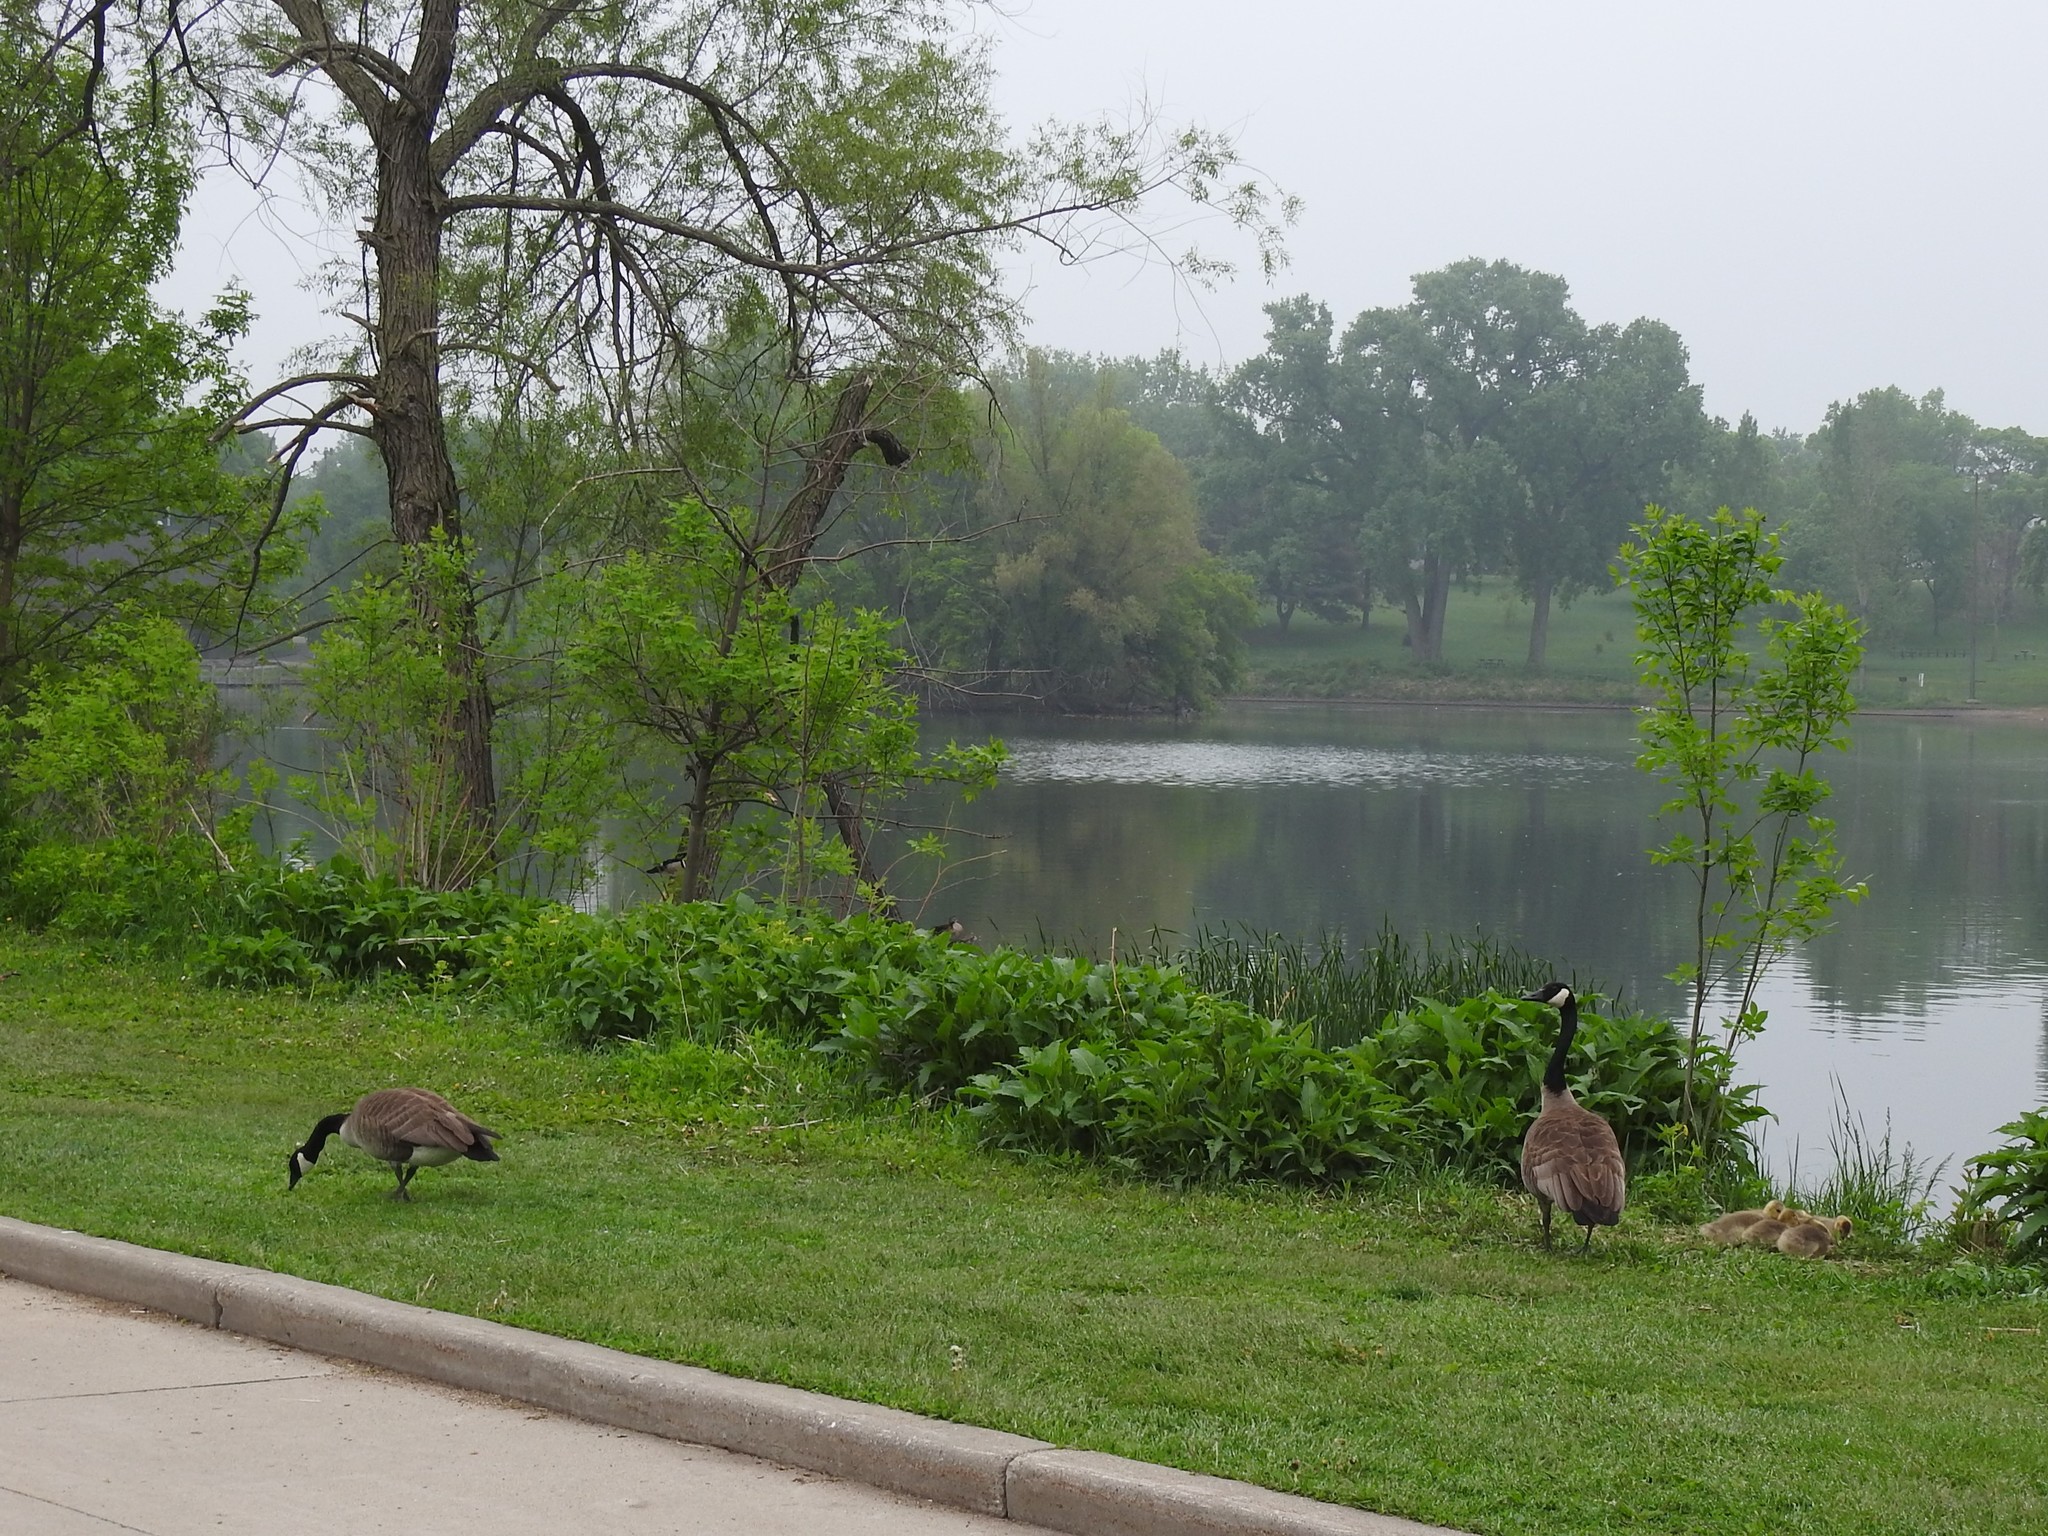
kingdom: Animalia
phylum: Chordata
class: Aves
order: Anseriformes
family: Anatidae
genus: Branta
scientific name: Branta canadensis
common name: Canada goose
